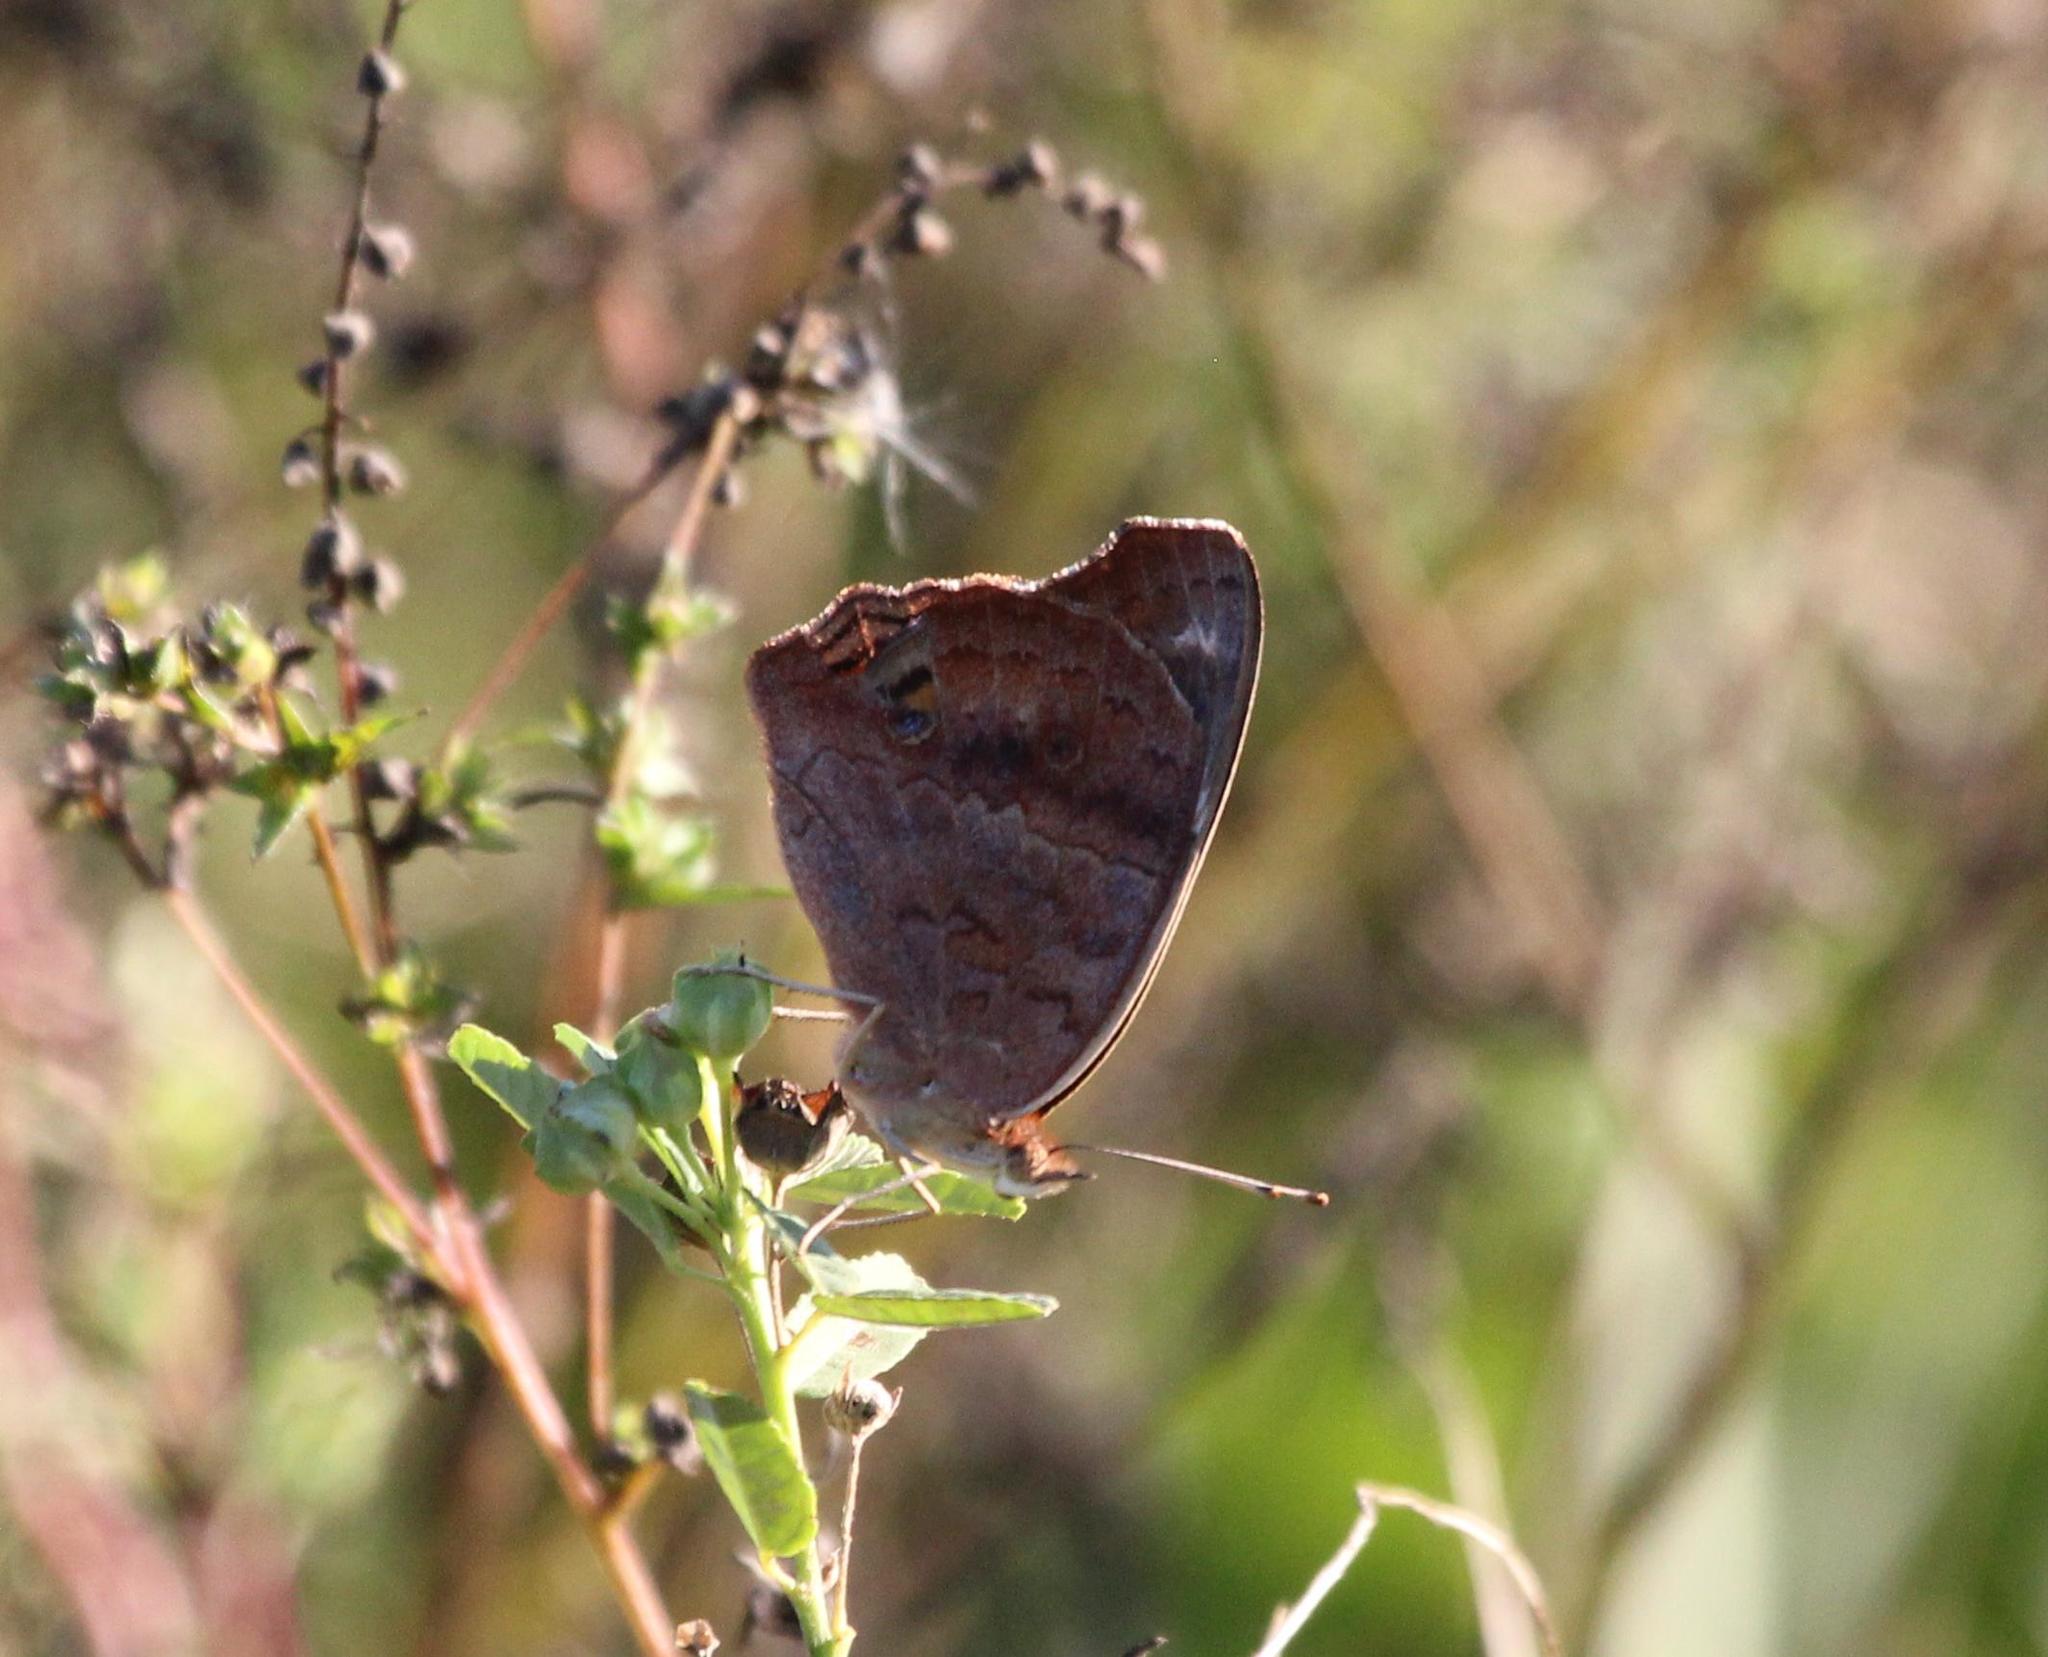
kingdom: Animalia
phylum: Arthropoda
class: Insecta
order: Lepidoptera
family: Nymphalidae
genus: Junonia
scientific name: Junonia coenia
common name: Common buckeye
